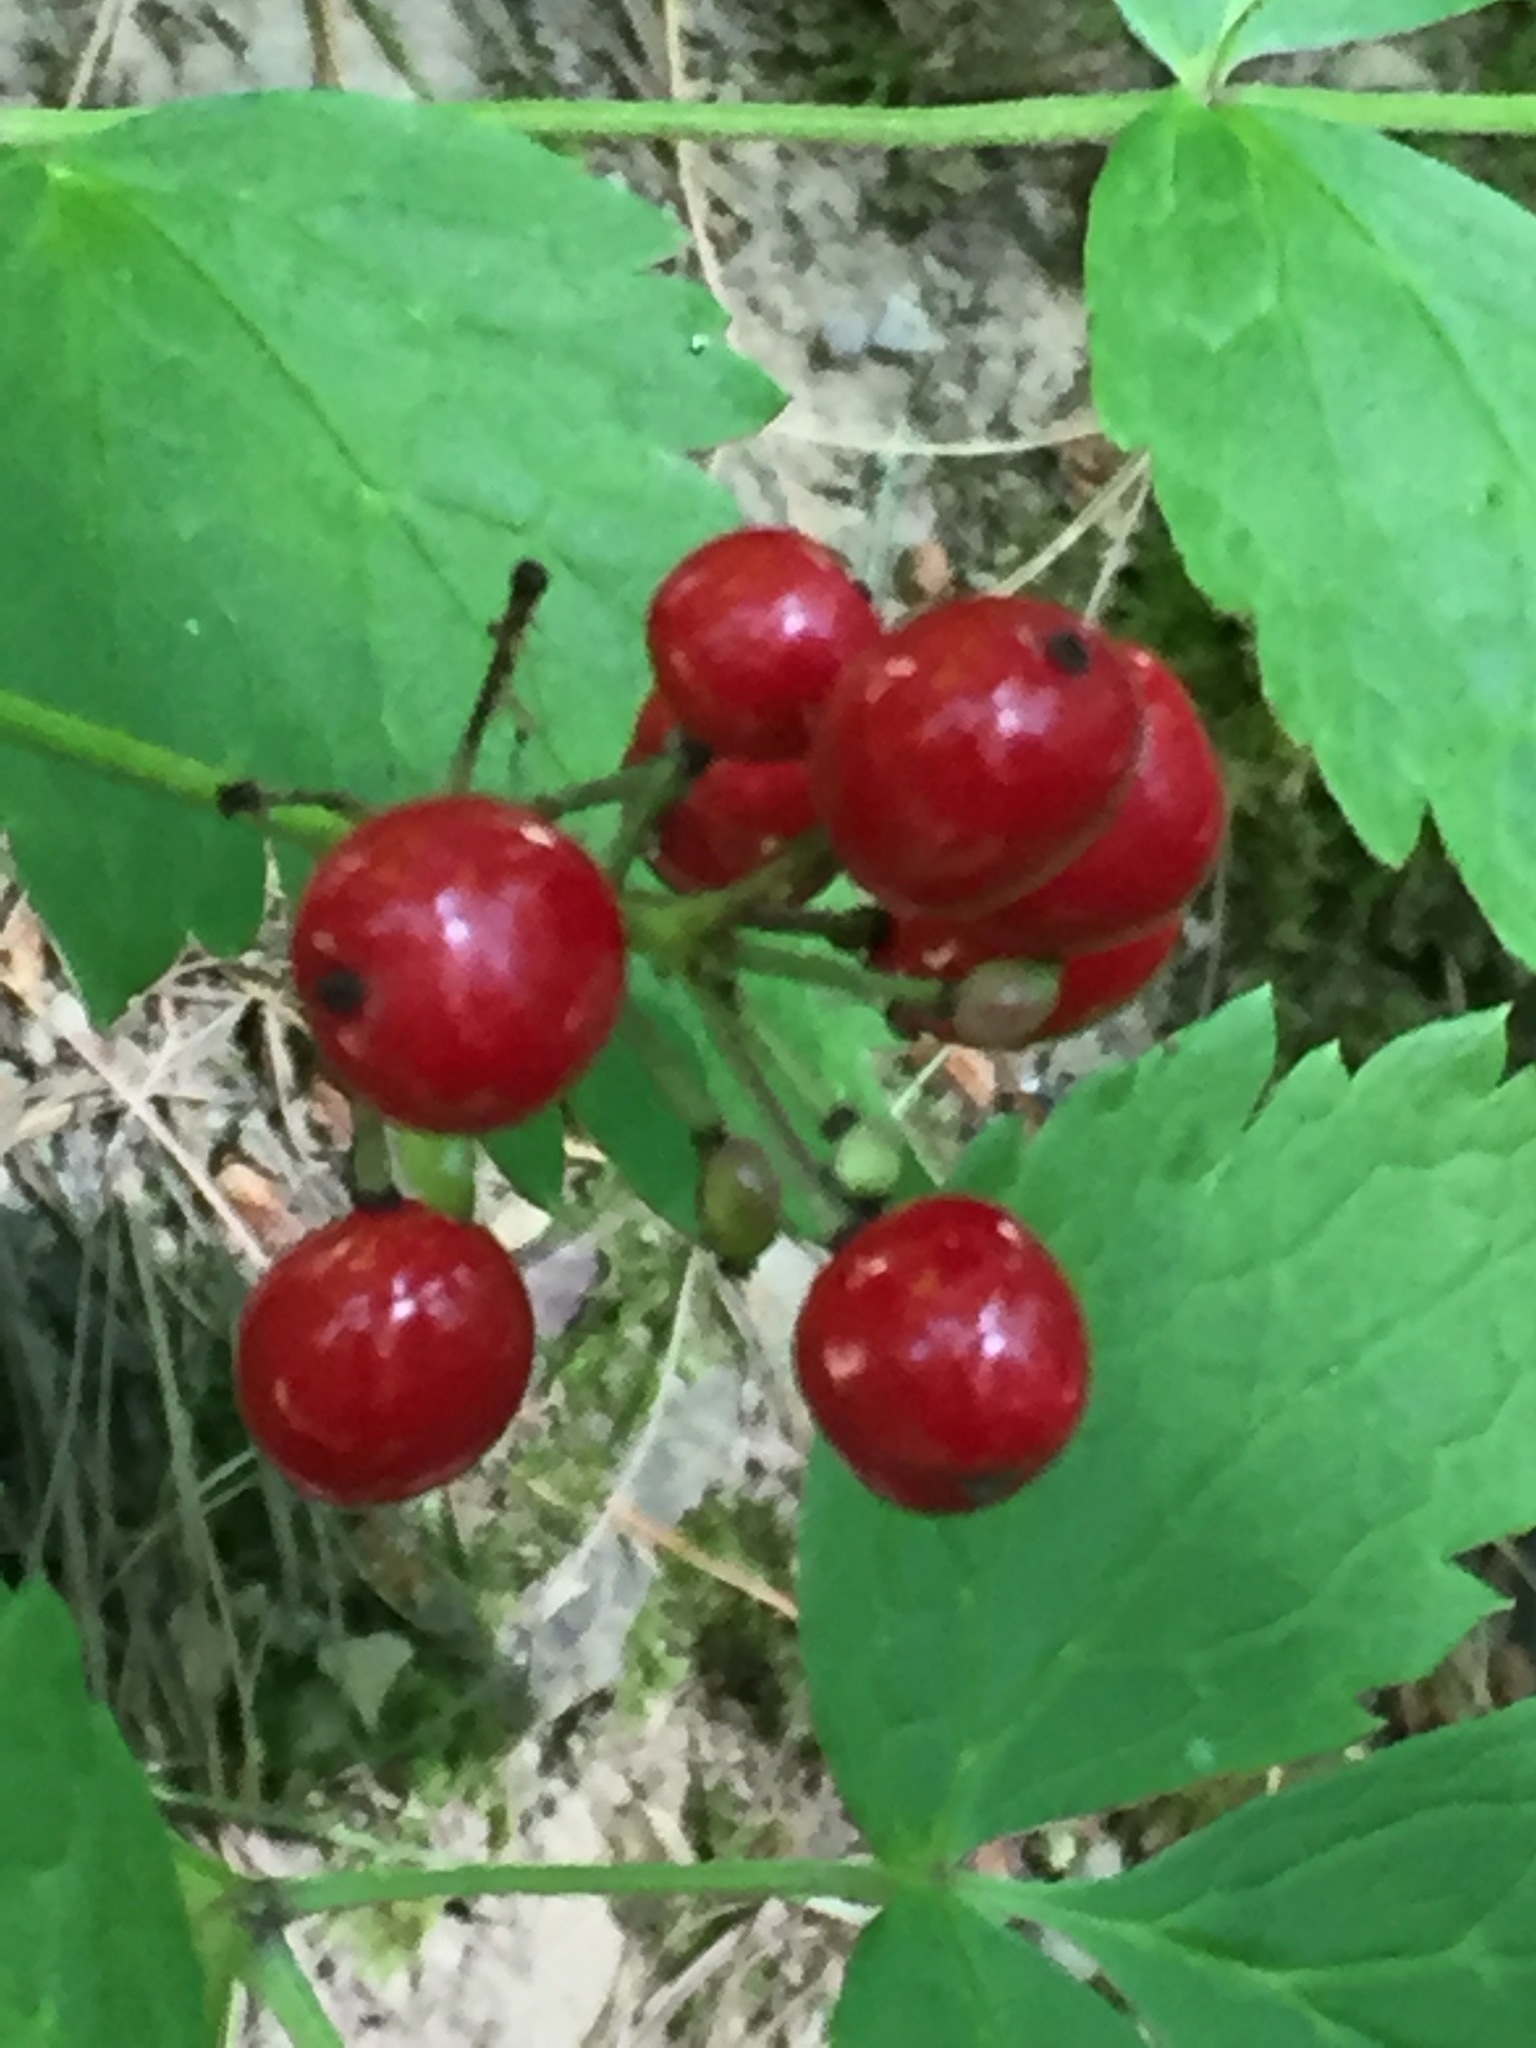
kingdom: Plantae
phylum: Tracheophyta
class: Magnoliopsida
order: Ranunculales
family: Ranunculaceae
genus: Actaea
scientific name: Actaea rubra
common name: Red baneberry
